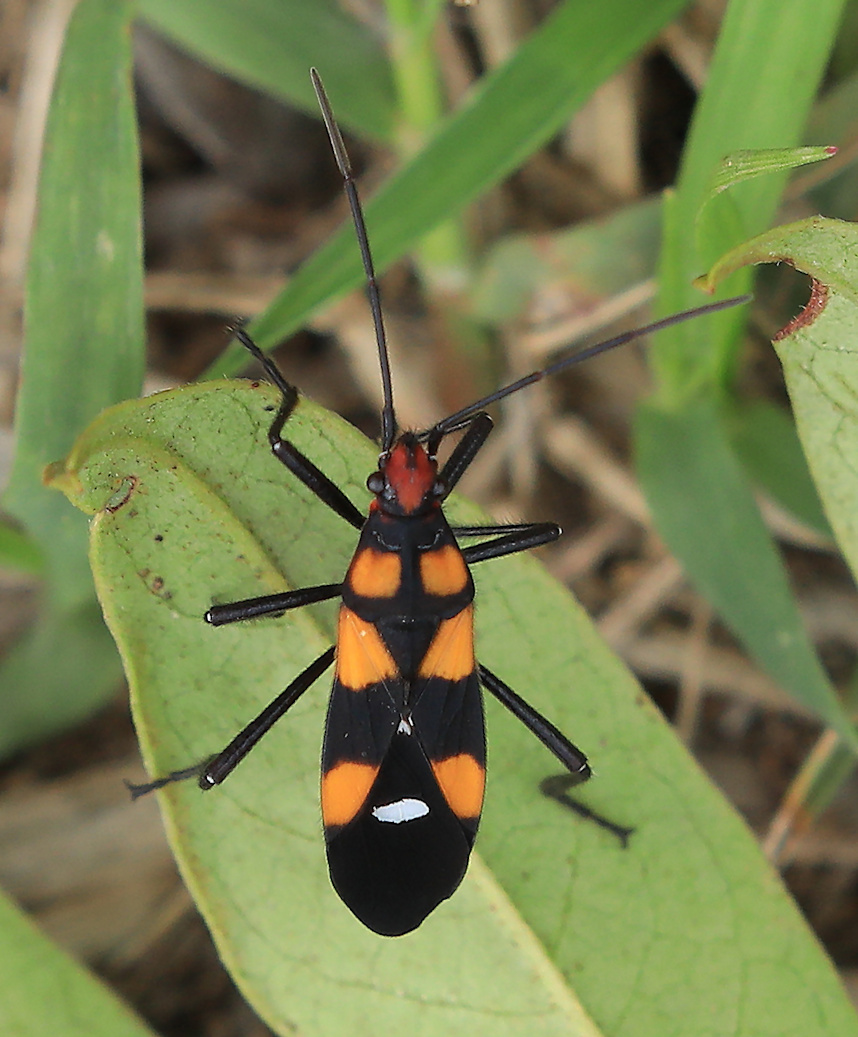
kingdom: Animalia
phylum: Arthropoda
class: Insecta
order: Hemiptera
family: Lygaeidae
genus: Oncopeltus
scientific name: Oncopeltus famelicus
